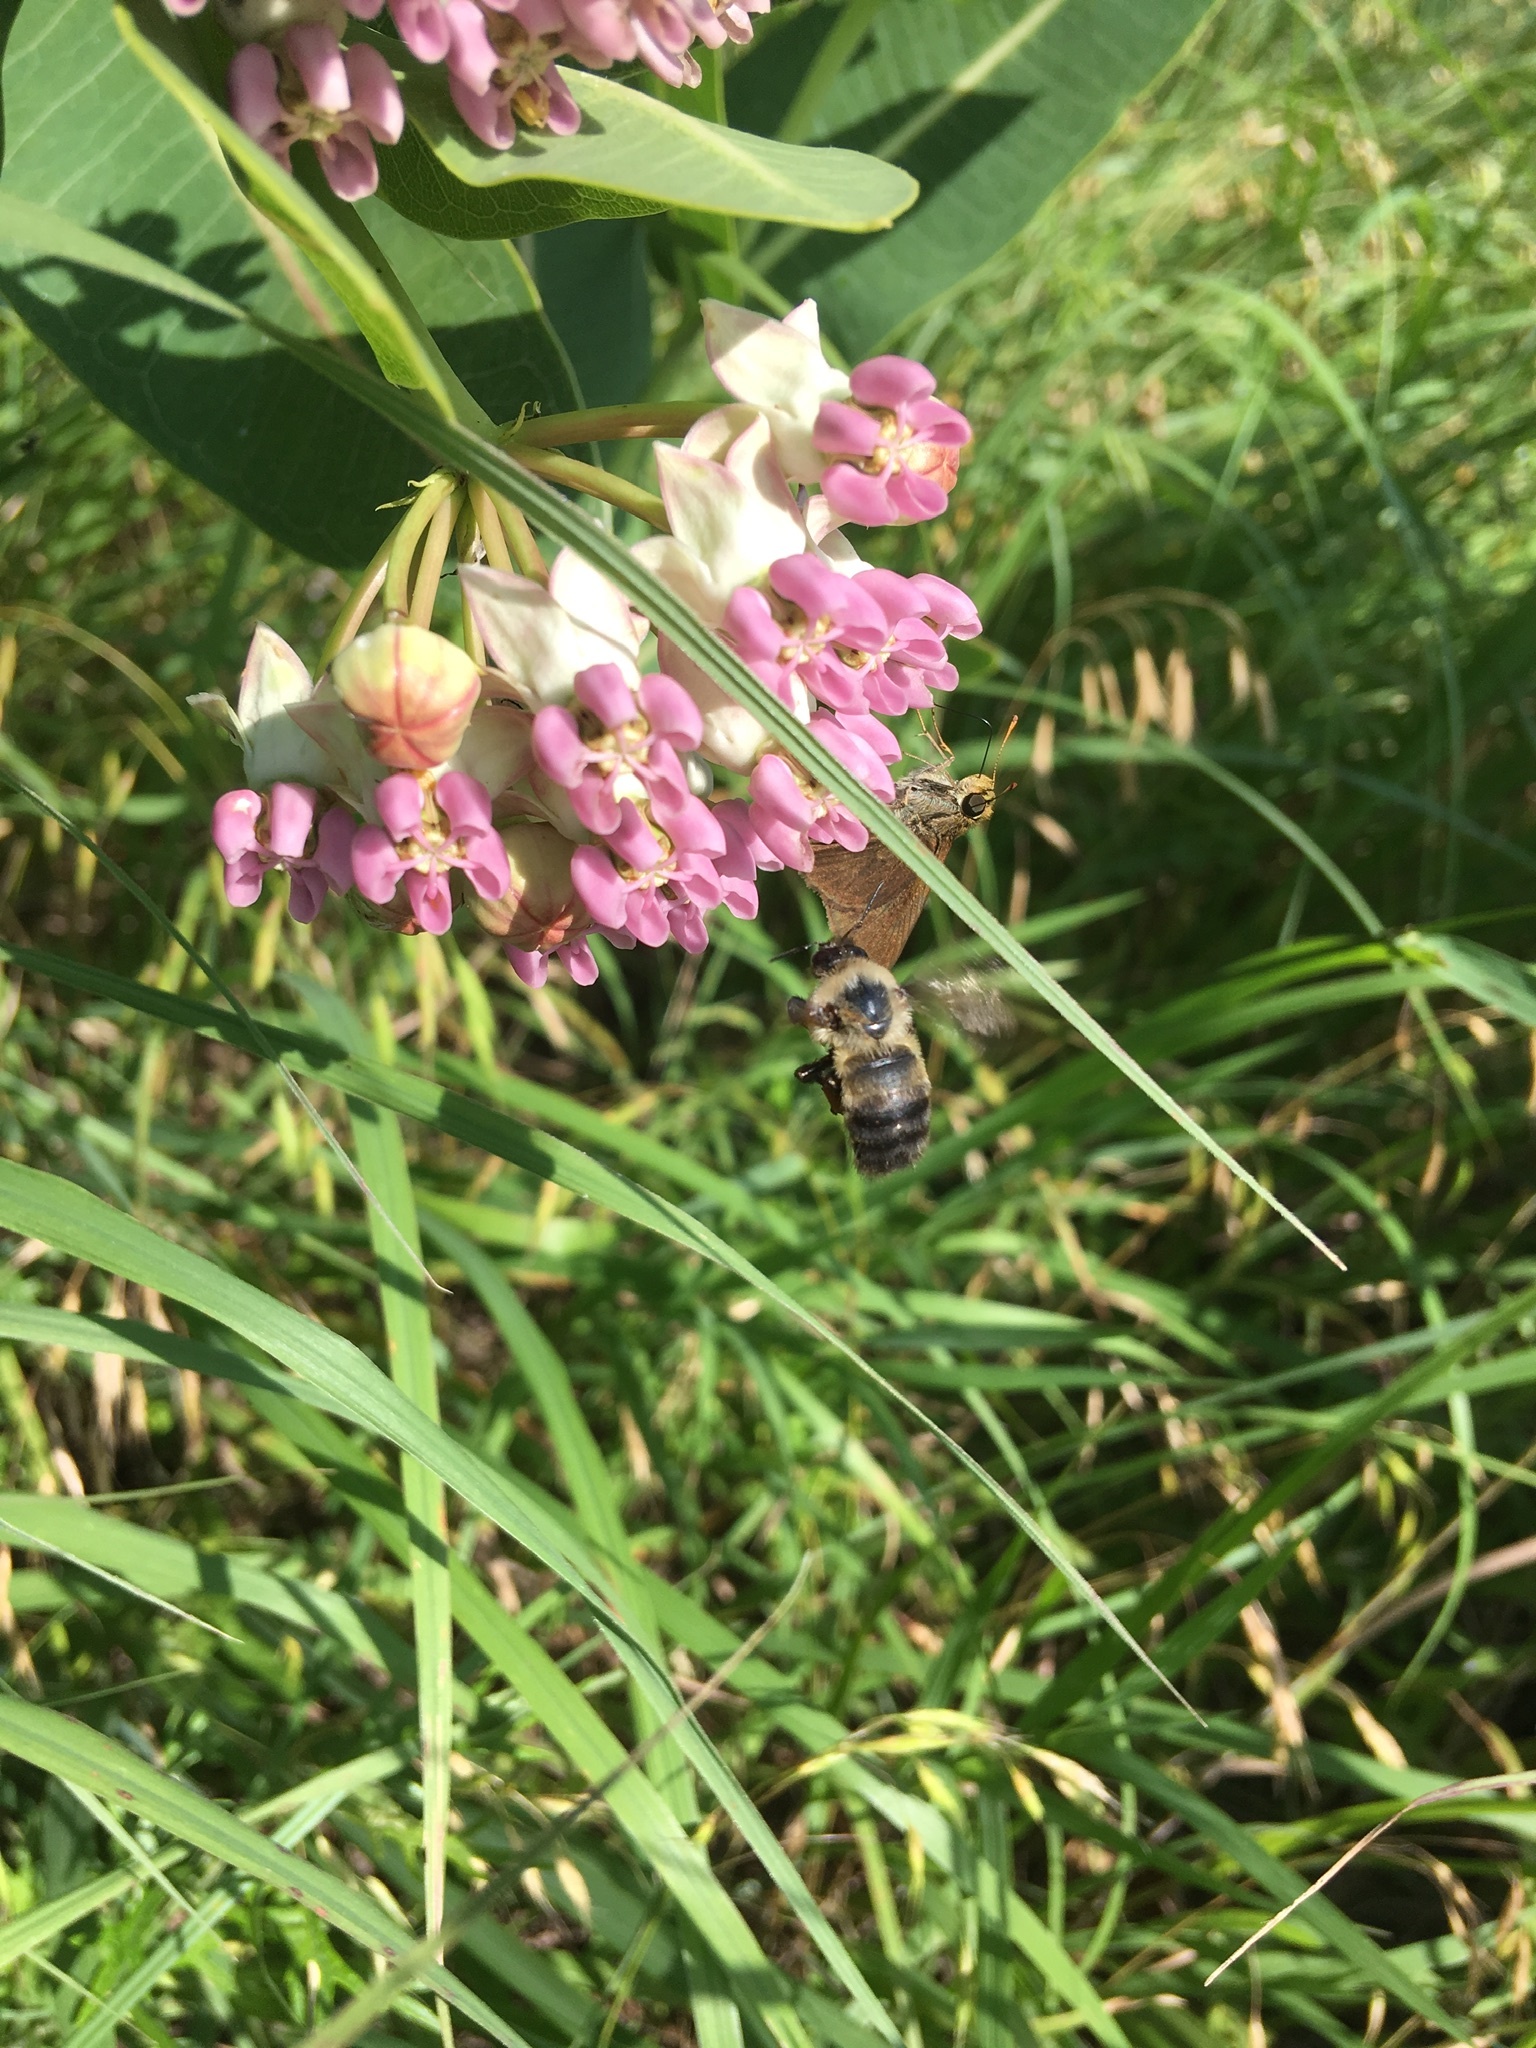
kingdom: Animalia
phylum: Arthropoda
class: Insecta
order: Hymenoptera
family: Apidae
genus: Bombus
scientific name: Bombus griseocollis
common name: Brown-belted bumble bee
